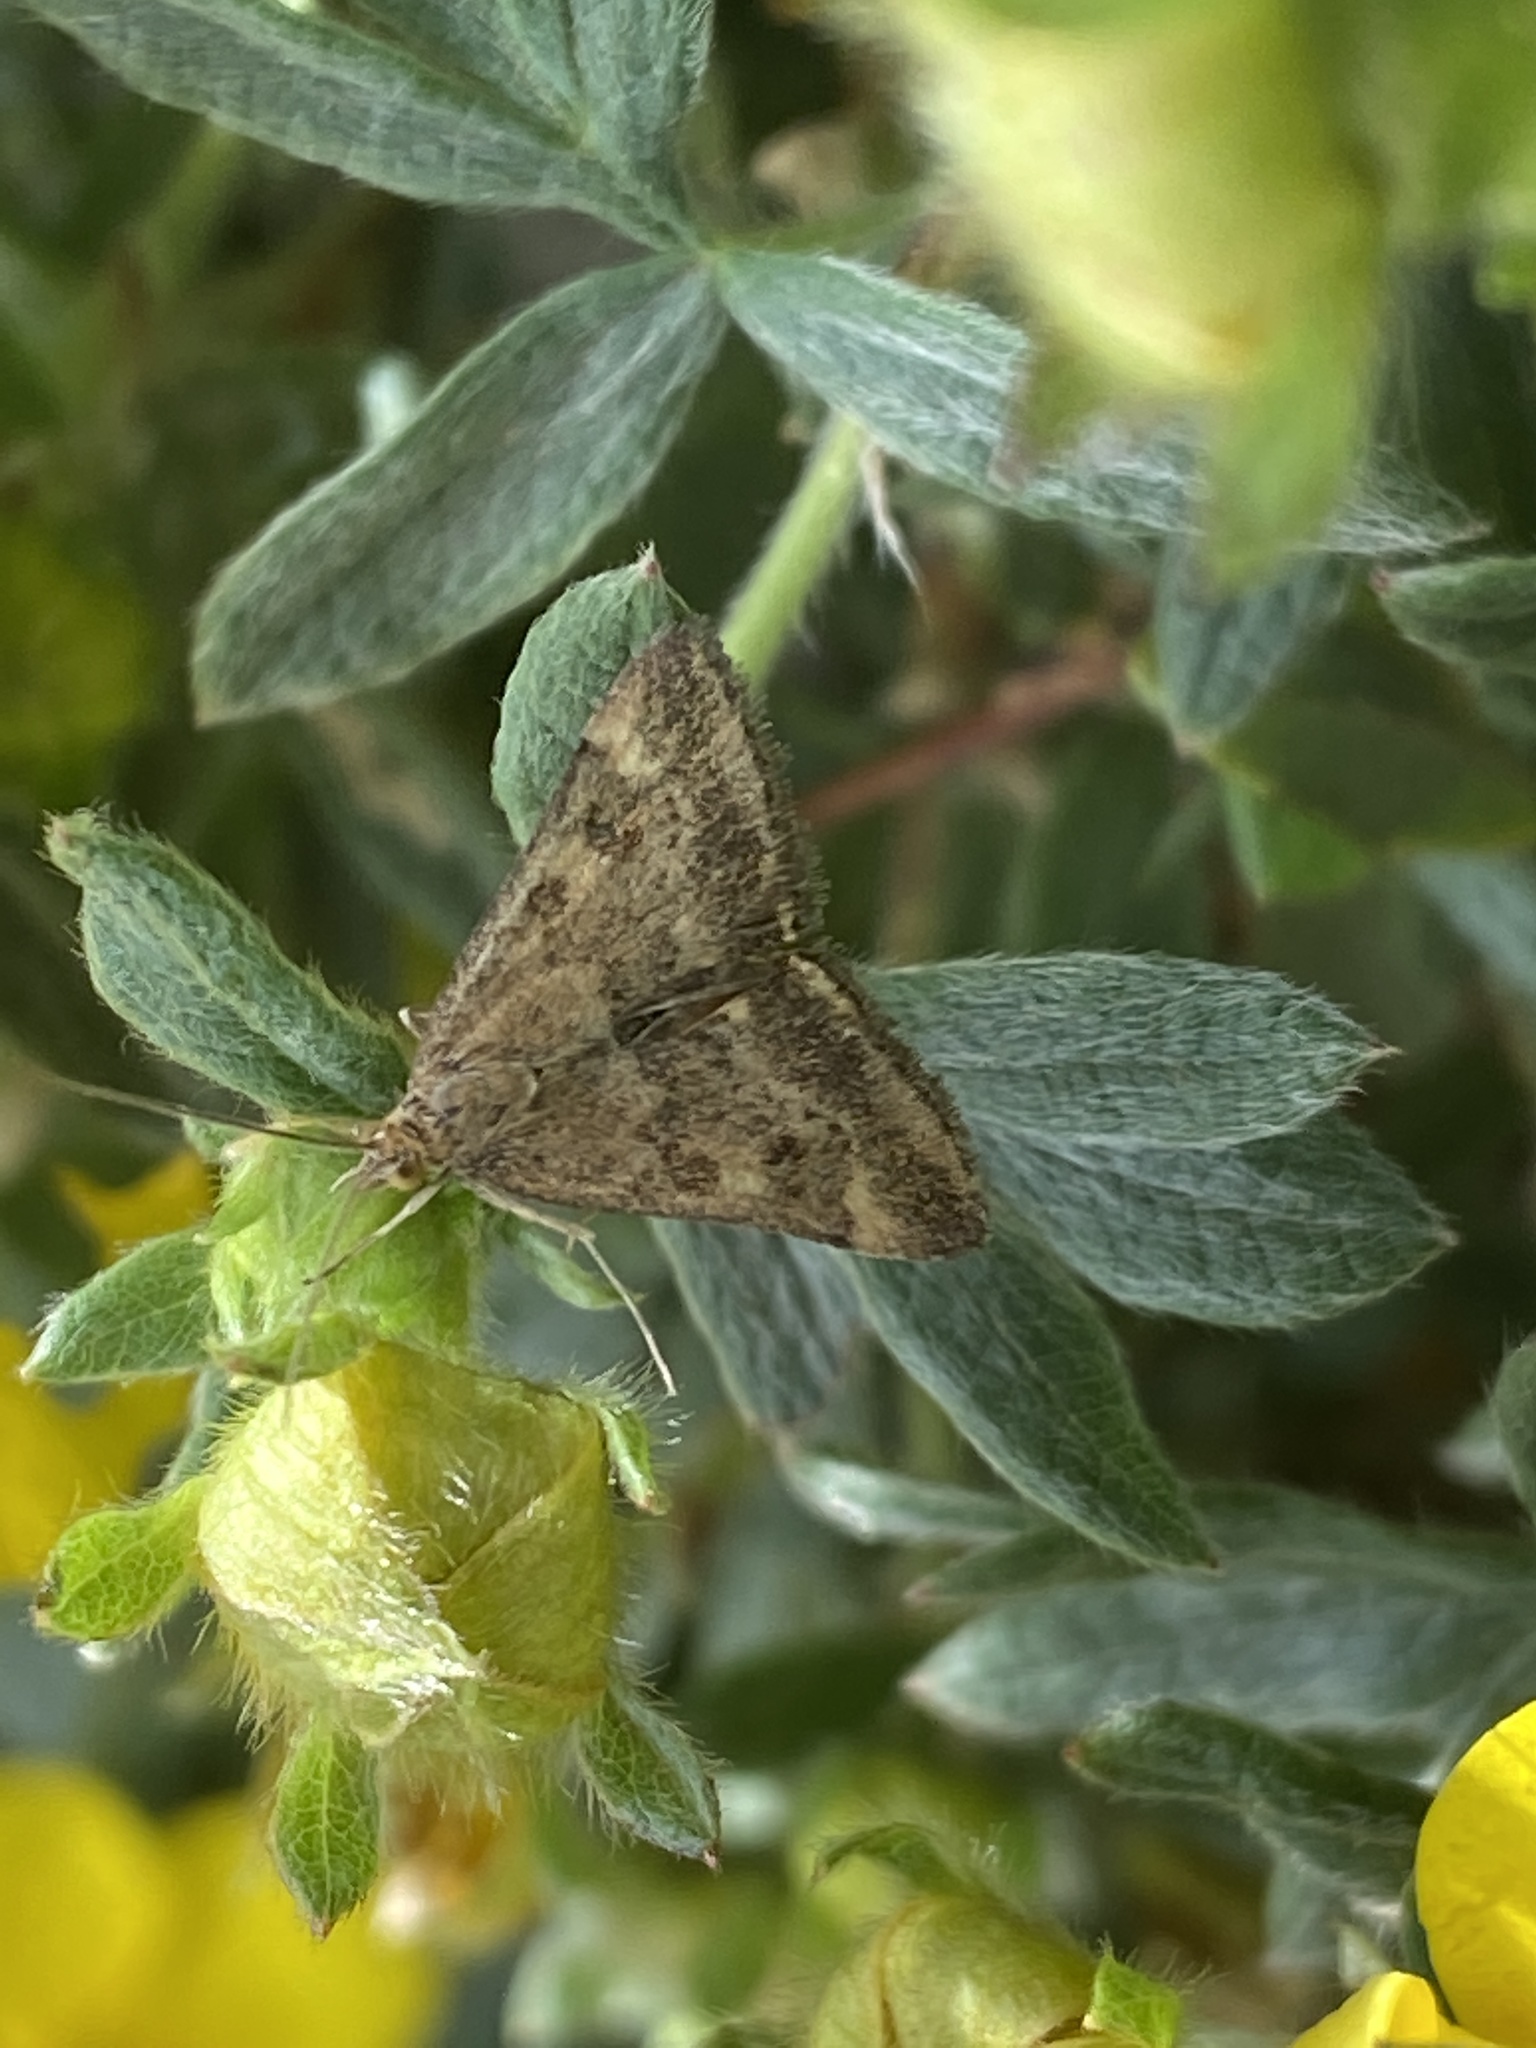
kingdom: Animalia
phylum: Arthropoda
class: Insecta
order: Lepidoptera
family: Crambidae
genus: Pyrausta
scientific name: Pyrausta despicata
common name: Straw-barred pearl
